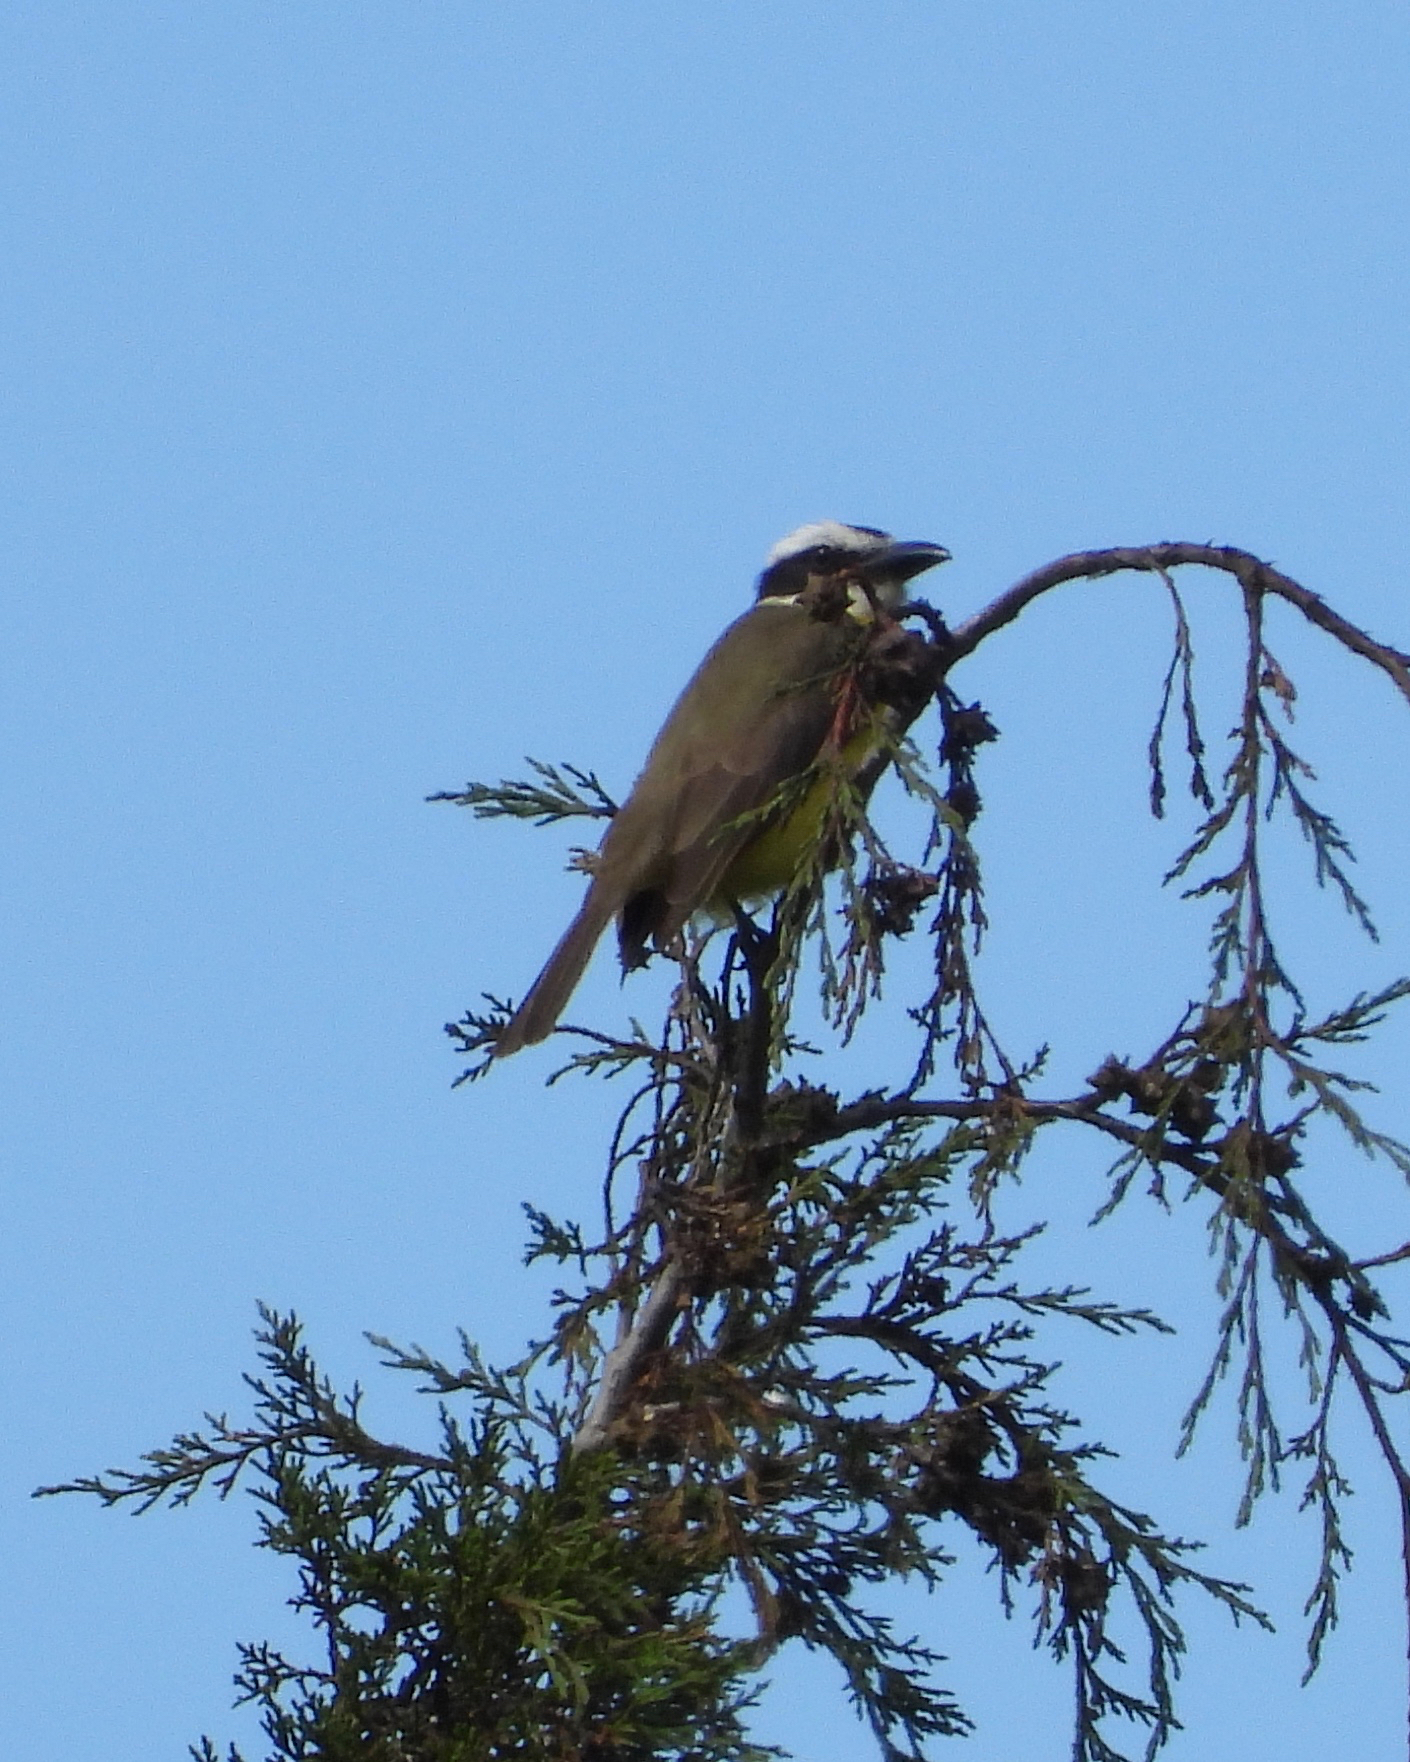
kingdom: Animalia
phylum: Chordata
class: Aves
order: Passeriformes
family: Tyrannidae
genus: Megarynchus
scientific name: Megarynchus pitangua
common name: Boat-billed flycatcher
